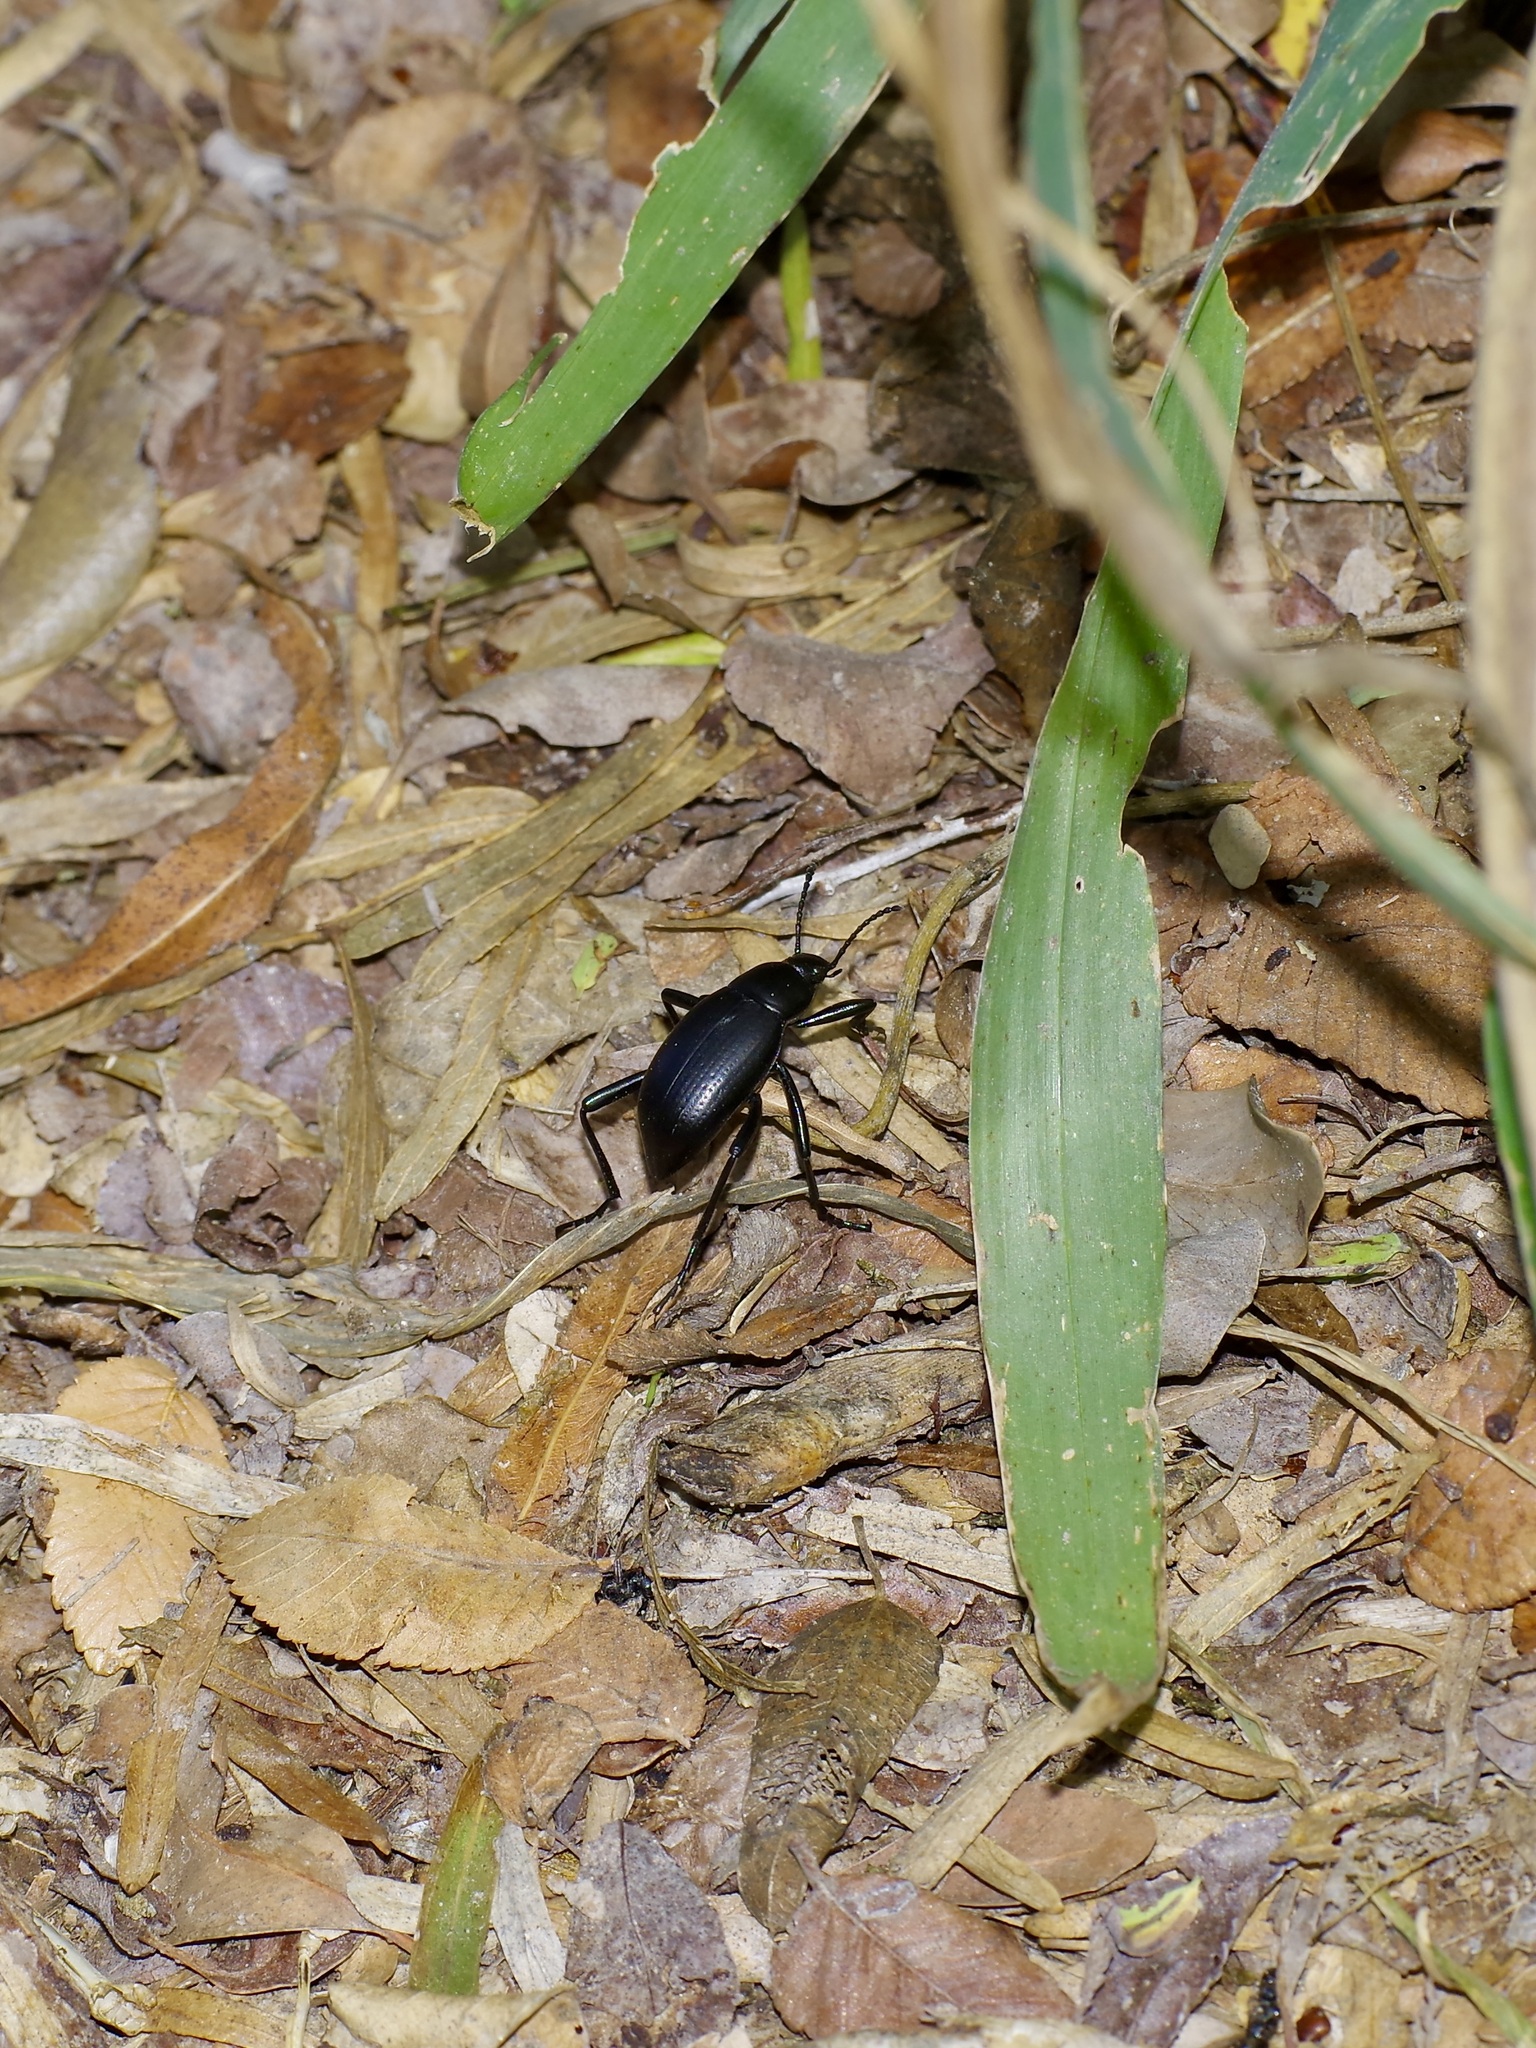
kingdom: Animalia
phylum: Arthropoda
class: Insecta
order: Coleoptera
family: Tenebrionidae
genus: Eleodes
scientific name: Eleodes goryi
